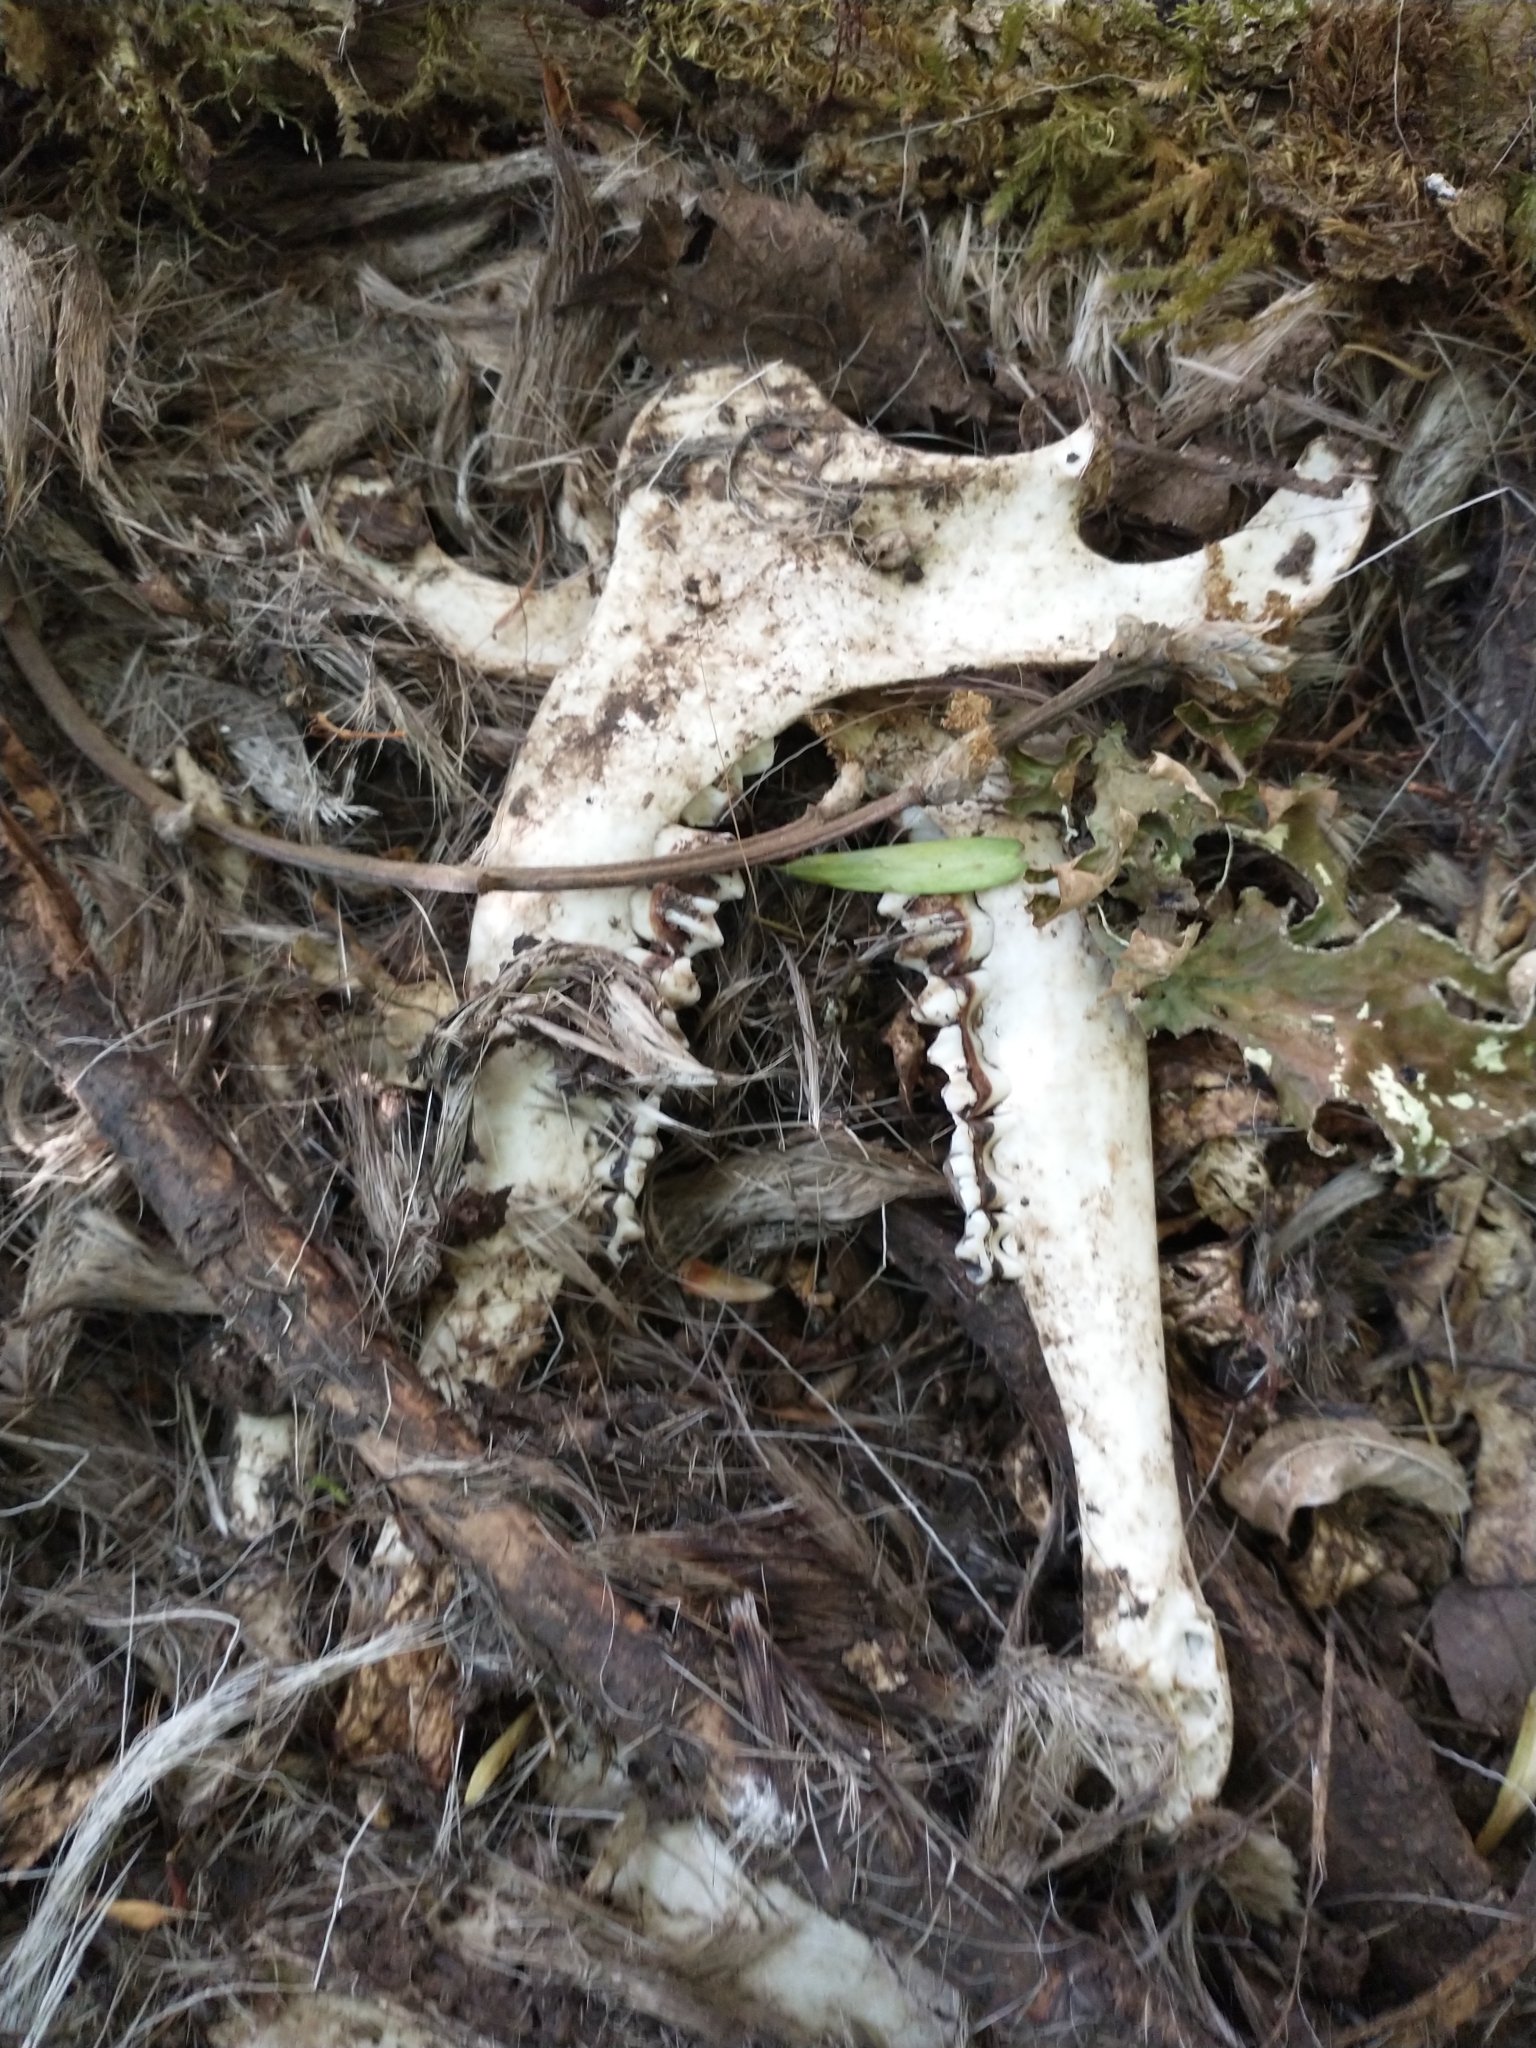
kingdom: Animalia
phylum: Chordata
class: Mammalia
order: Artiodactyla
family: Cervidae
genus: Odocoileus
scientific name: Odocoileus hemionus
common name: Mule deer
